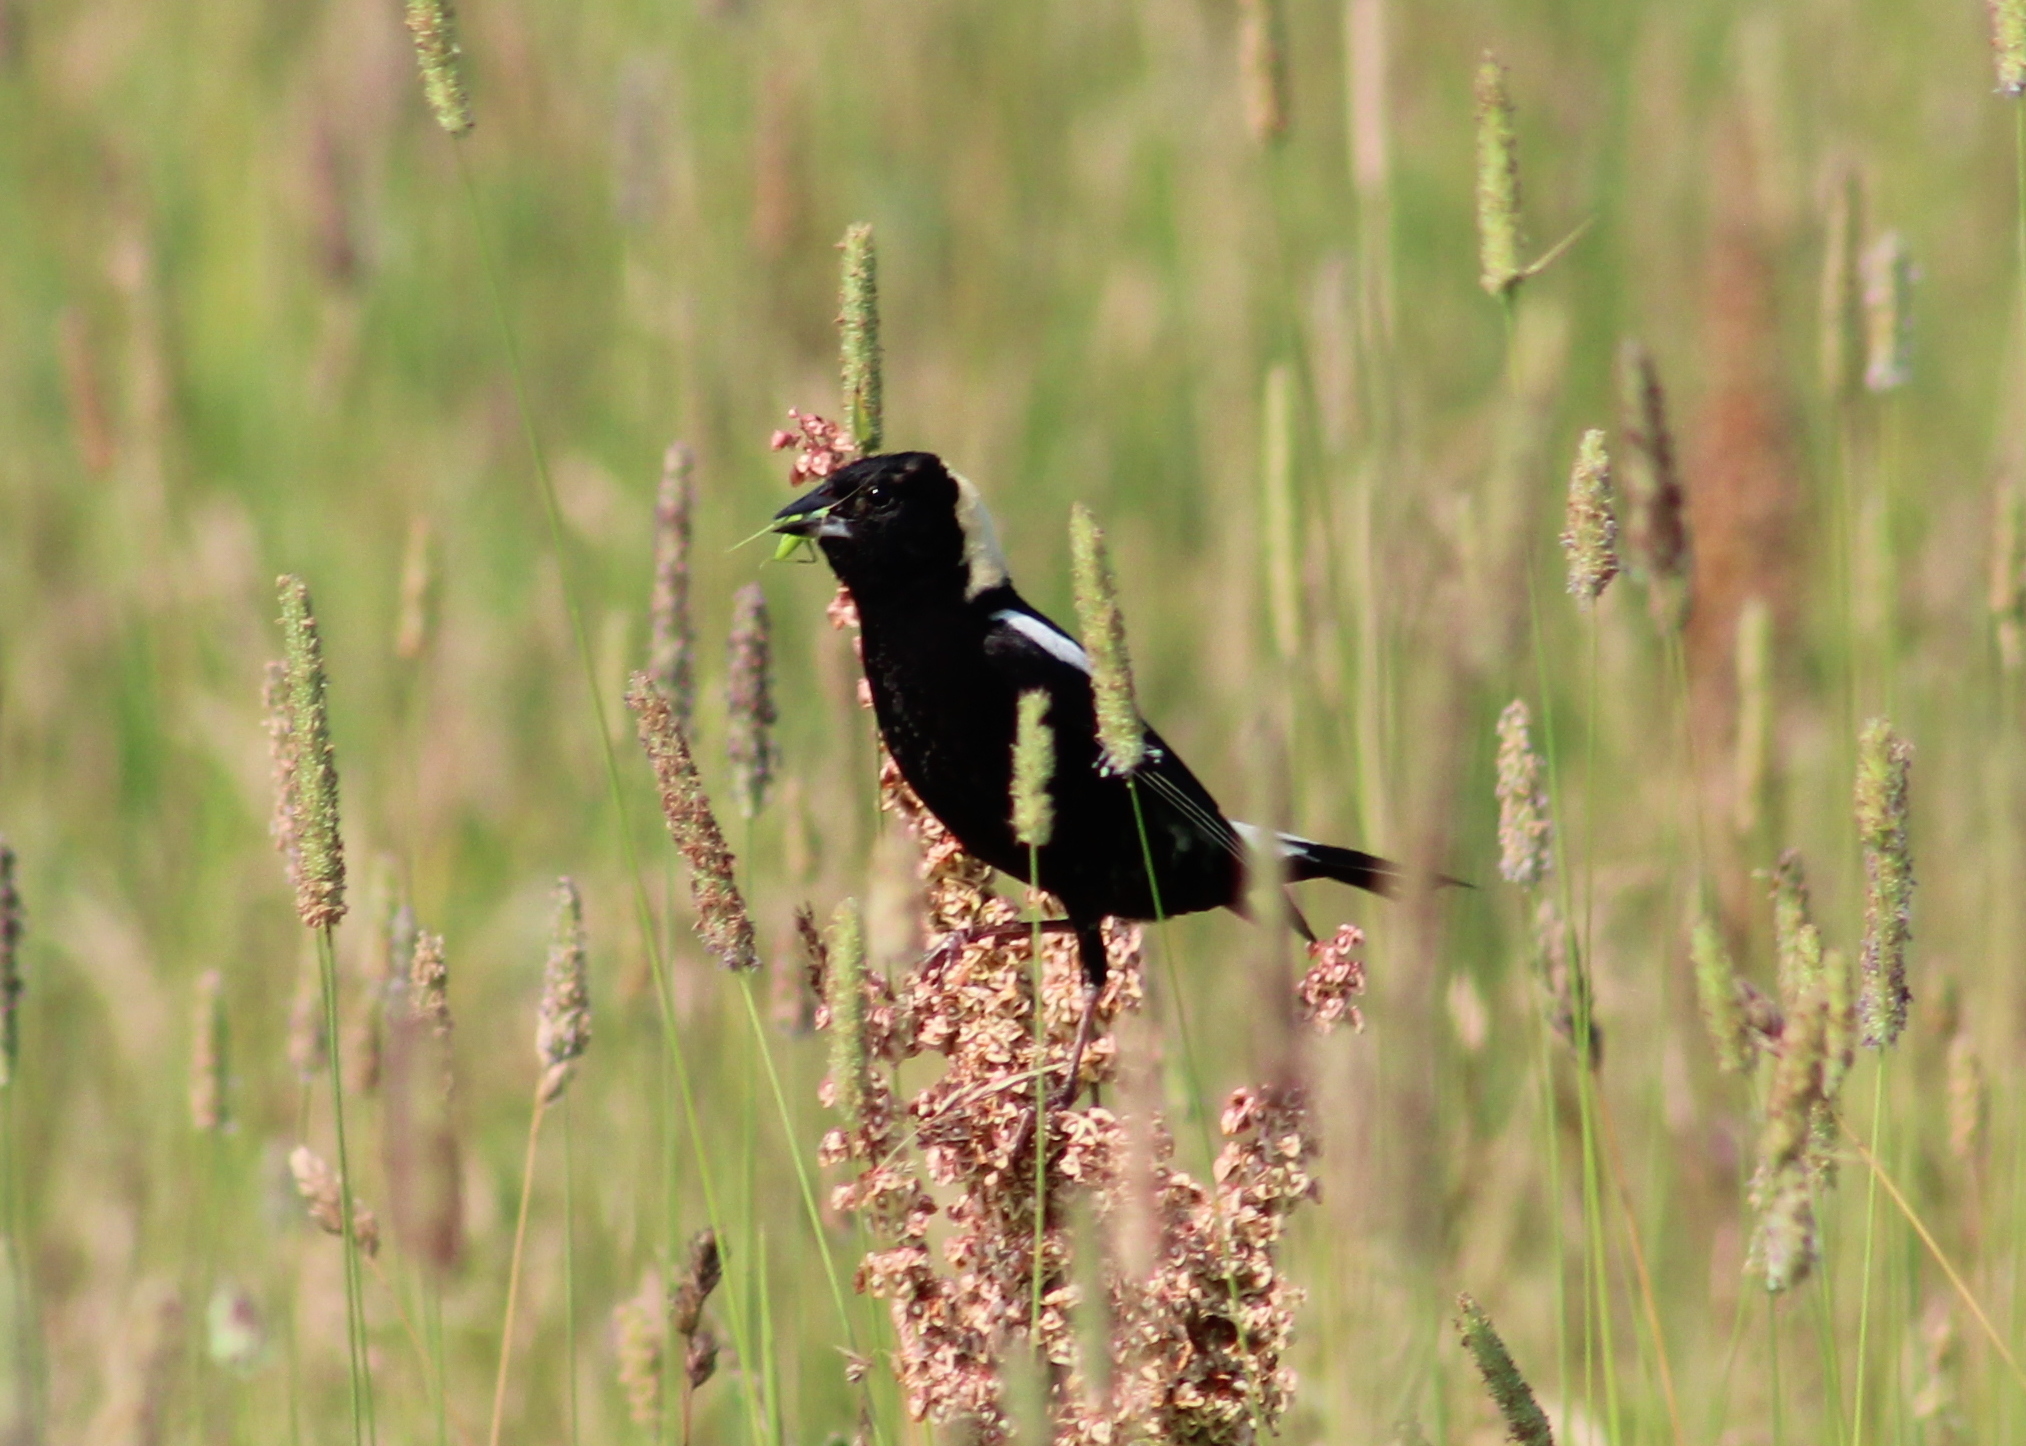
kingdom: Animalia
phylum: Chordata
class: Aves
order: Passeriformes
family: Icteridae
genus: Dolichonyx
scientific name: Dolichonyx oryzivorus
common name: Bobolink
